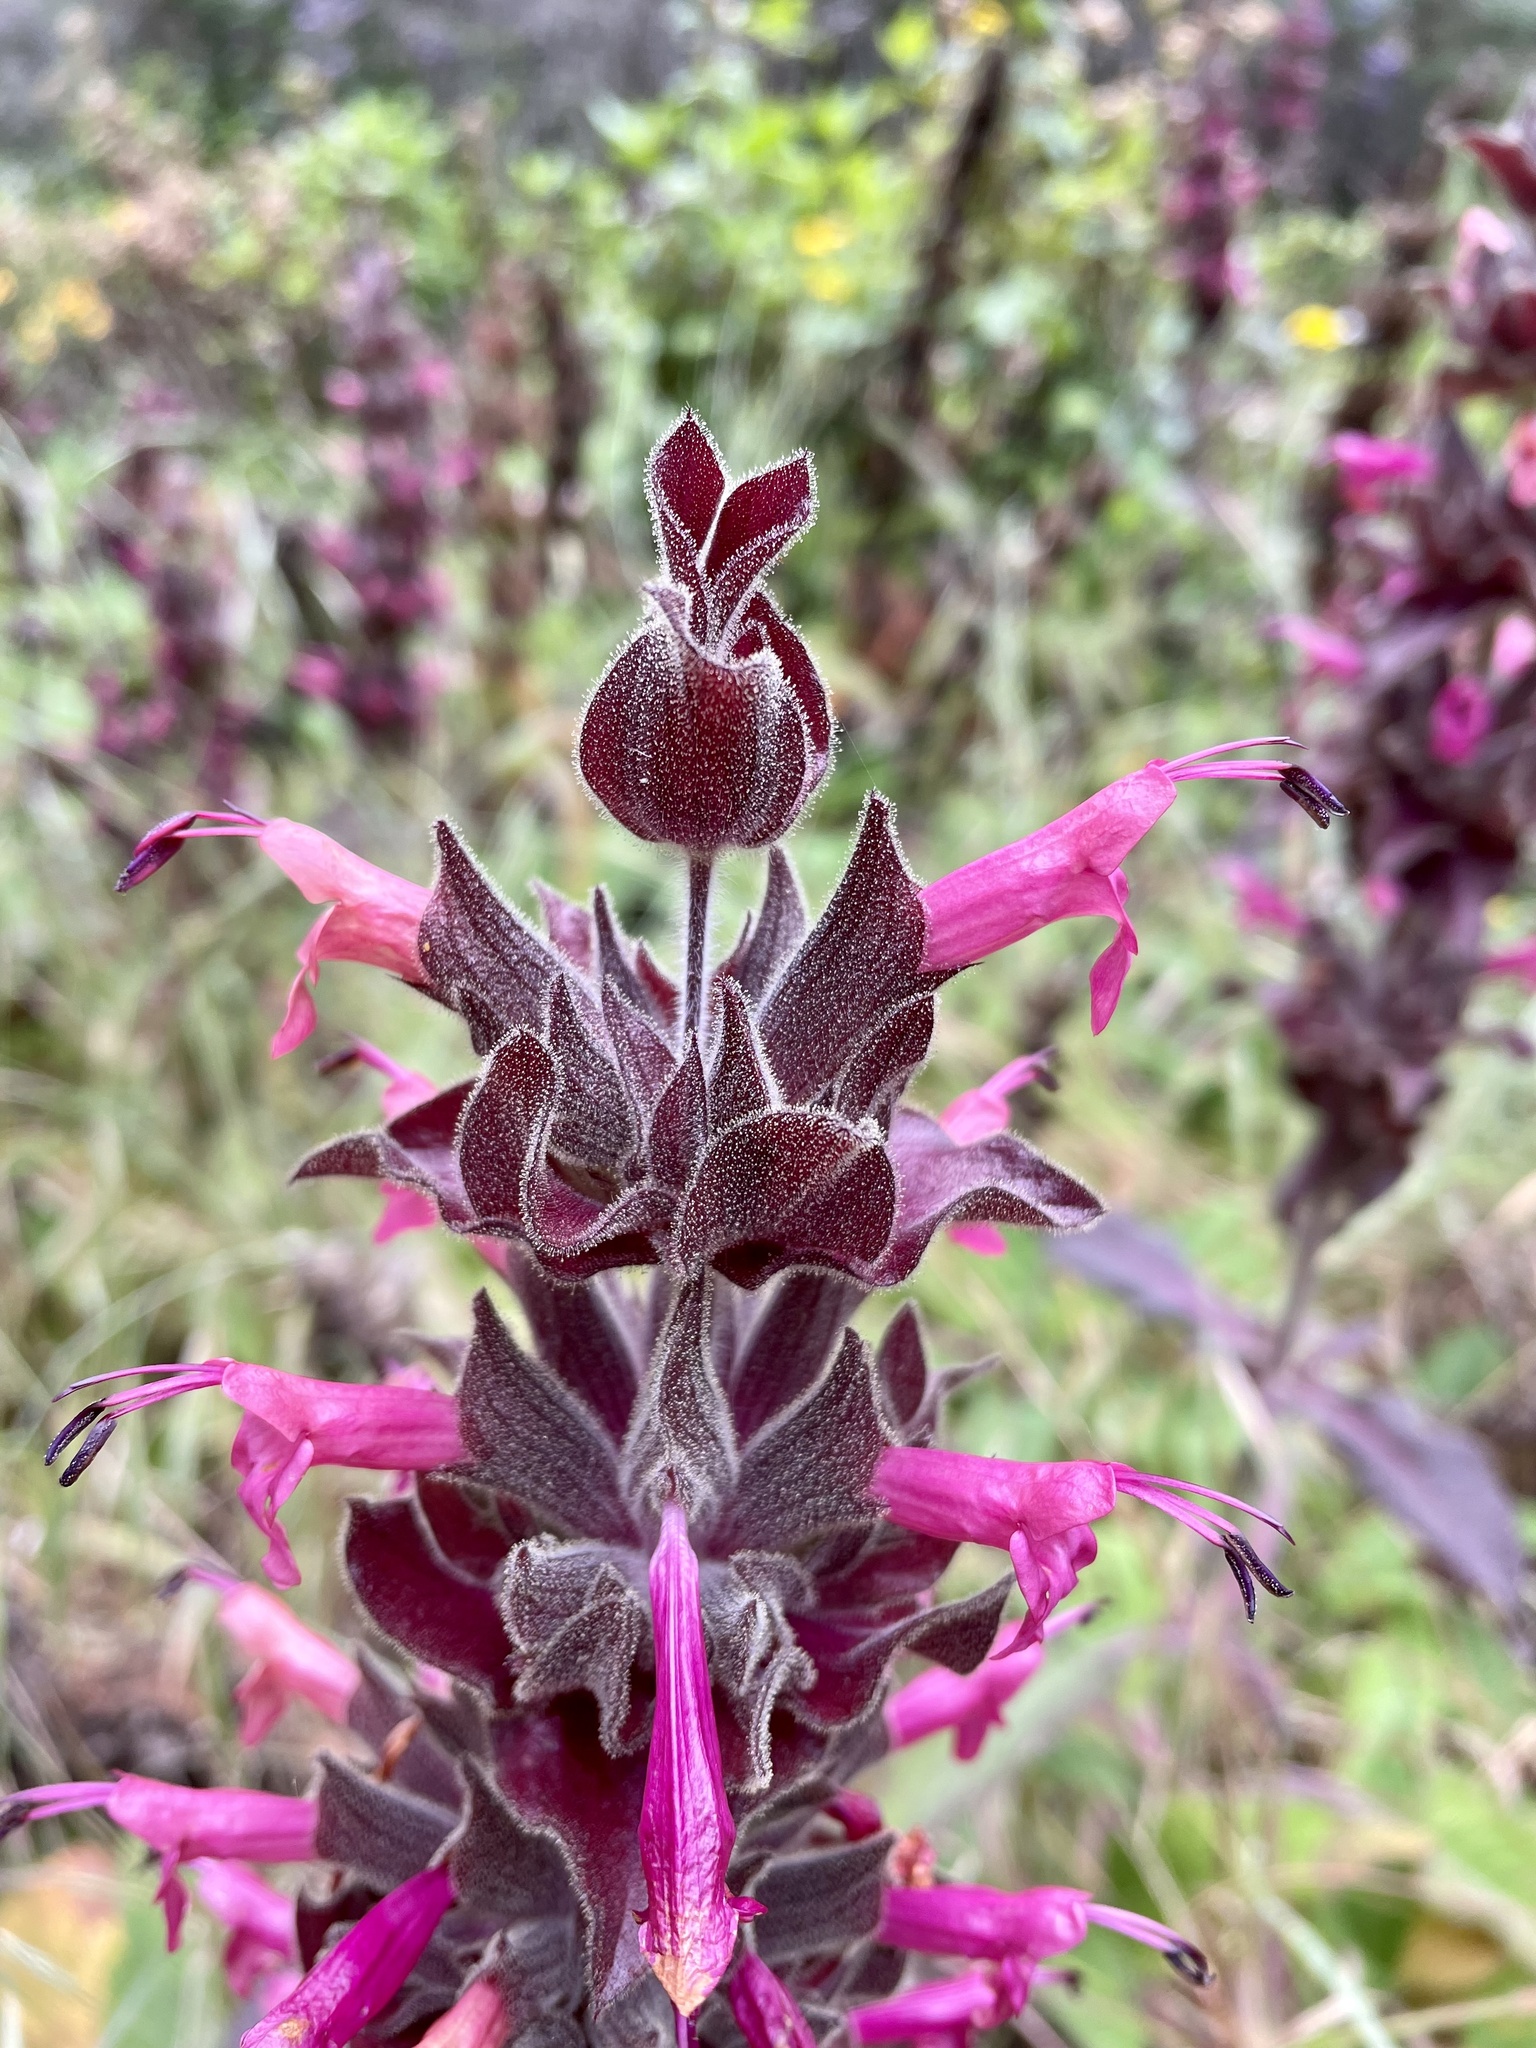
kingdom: Plantae
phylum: Tracheophyta
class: Magnoliopsida
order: Lamiales
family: Lamiaceae
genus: Salvia
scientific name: Salvia spathacea
